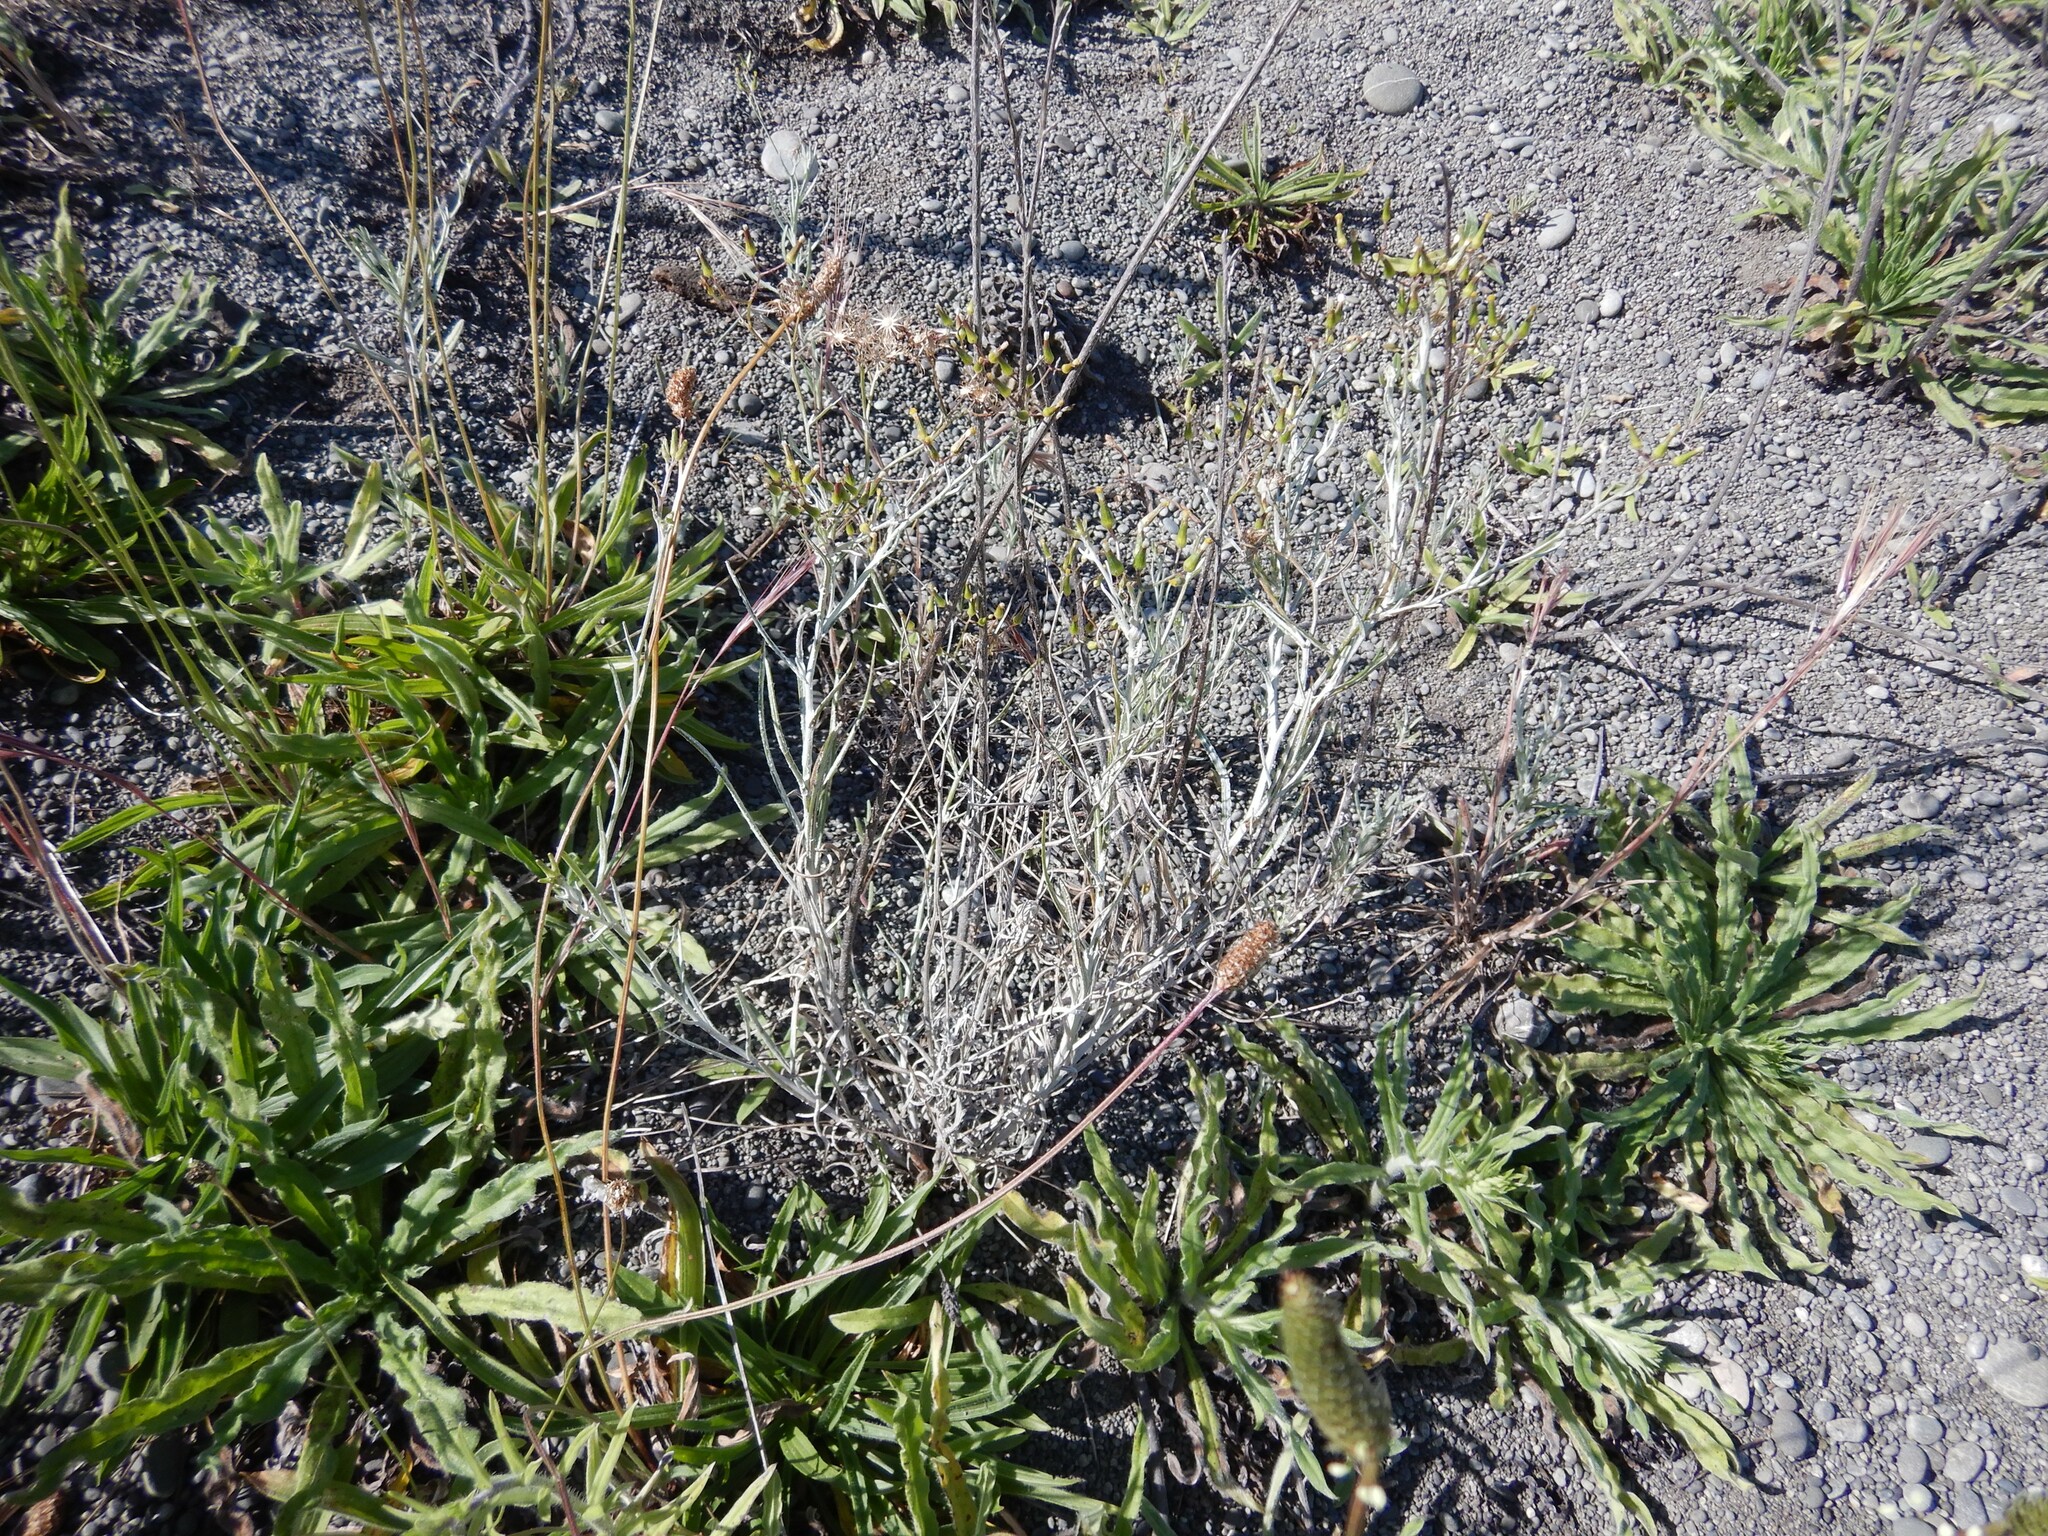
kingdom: Plantae
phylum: Tracheophyta
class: Magnoliopsida
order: Asterales
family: Asteraceae
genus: Senecio
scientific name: Senecio quadridentatus
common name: Cotton fireweed
